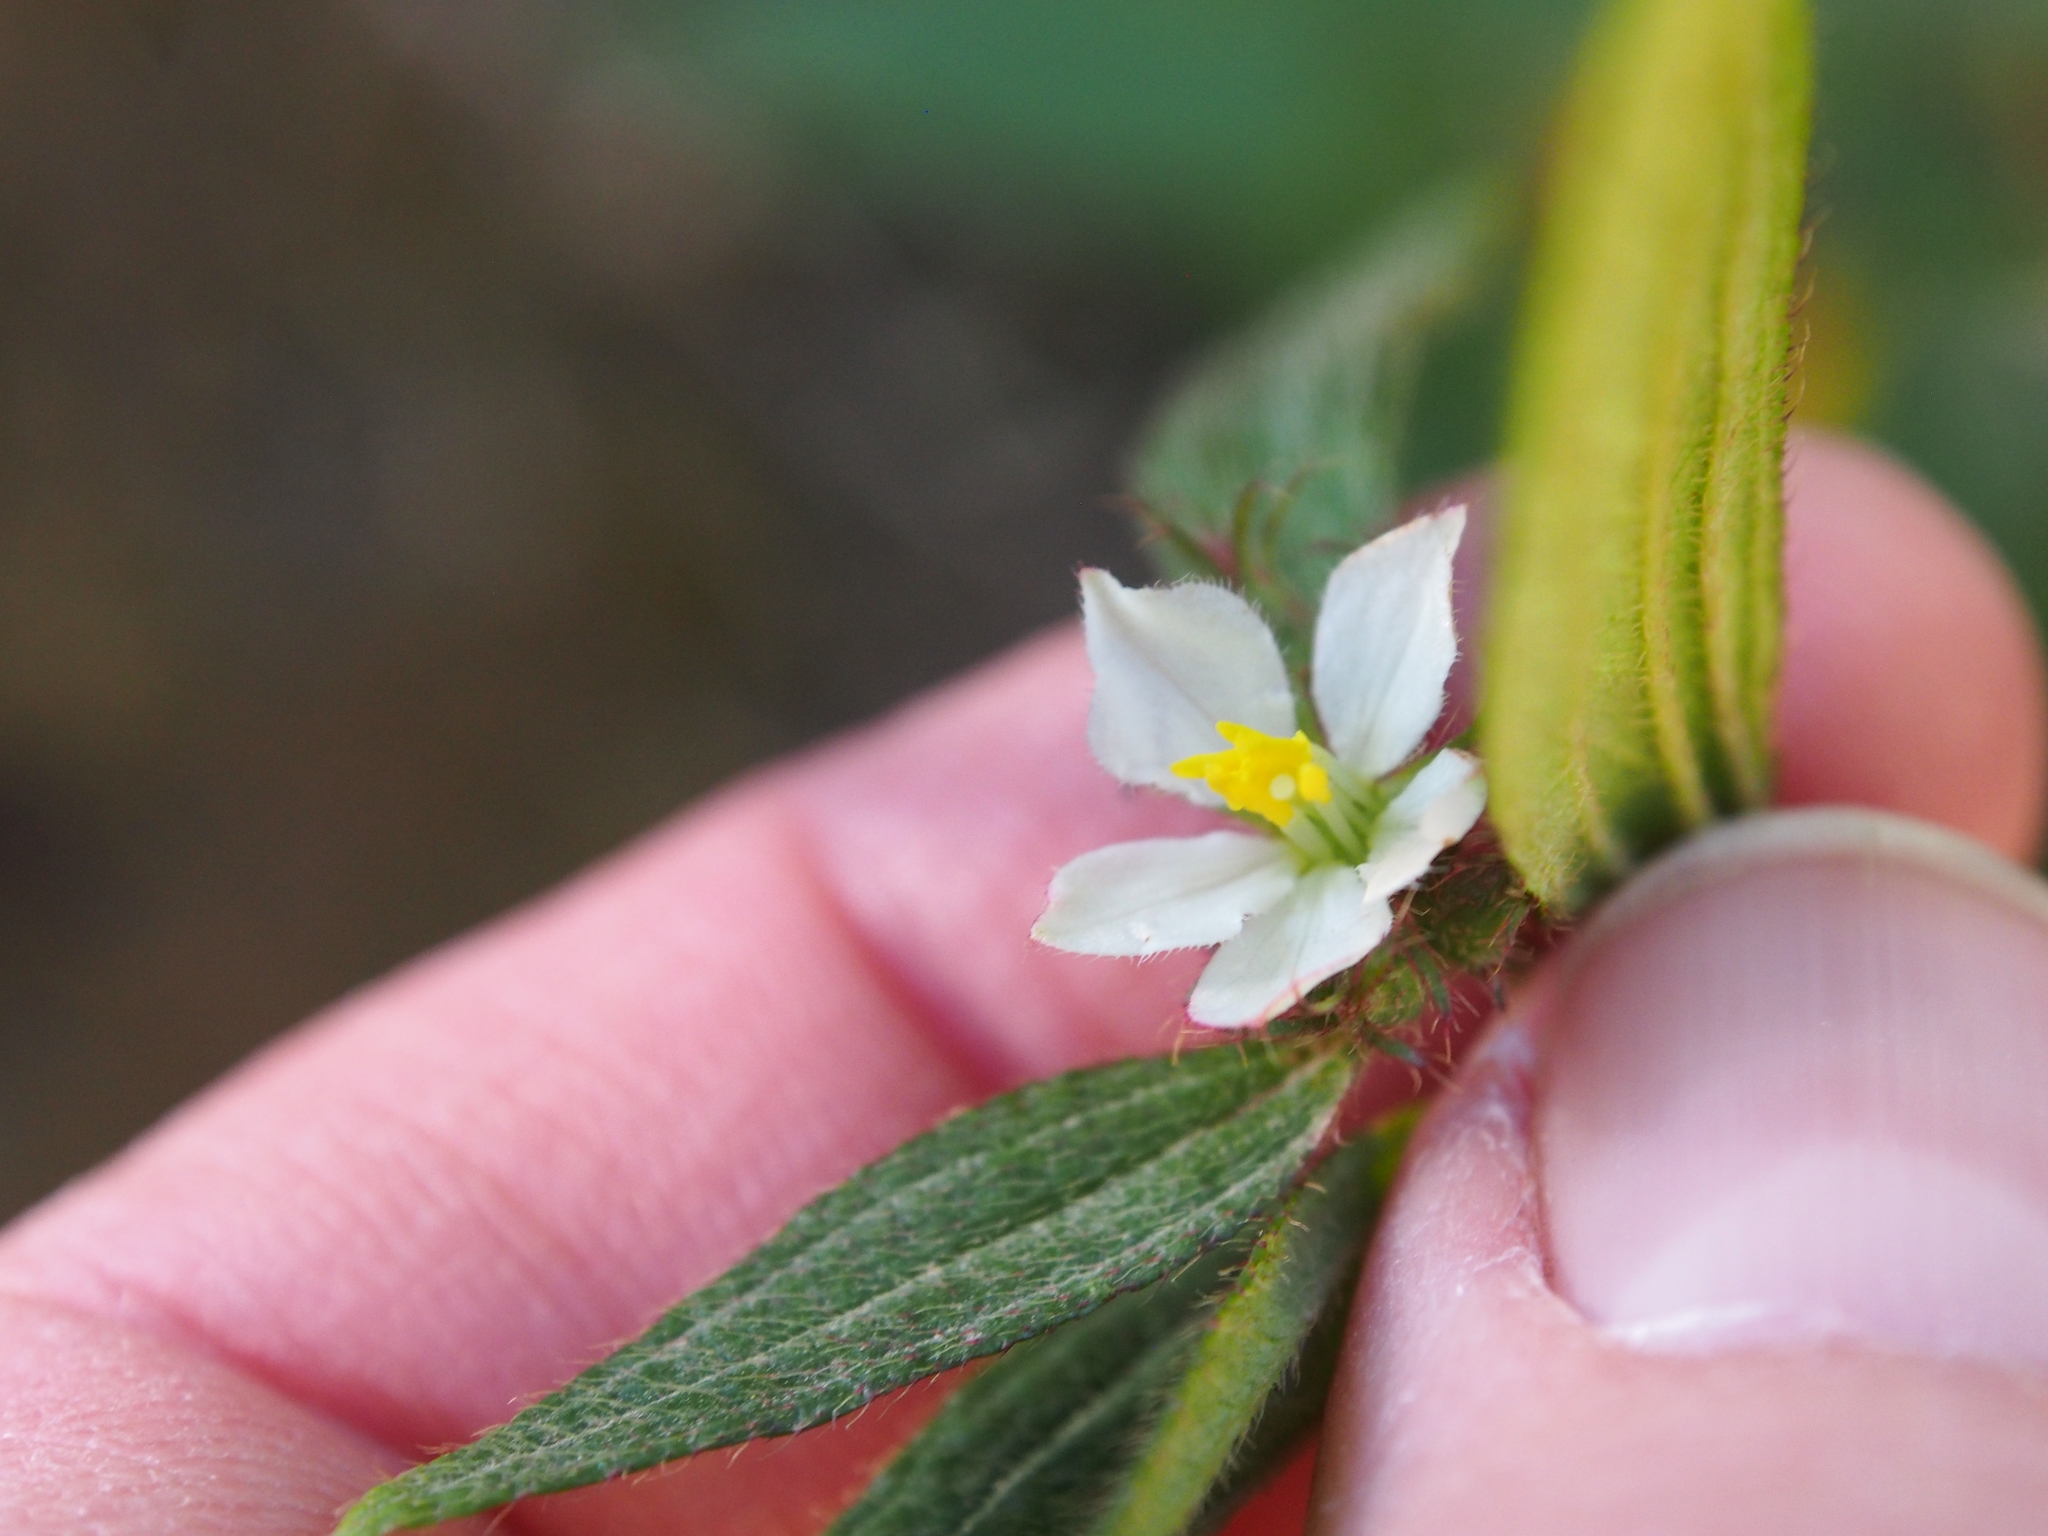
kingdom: Plantae
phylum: Tracheophyta
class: Magnoliopsida
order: Myrtales
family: Melastomataceae
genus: Chaetogastra
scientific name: Chaetogastra longifolia
